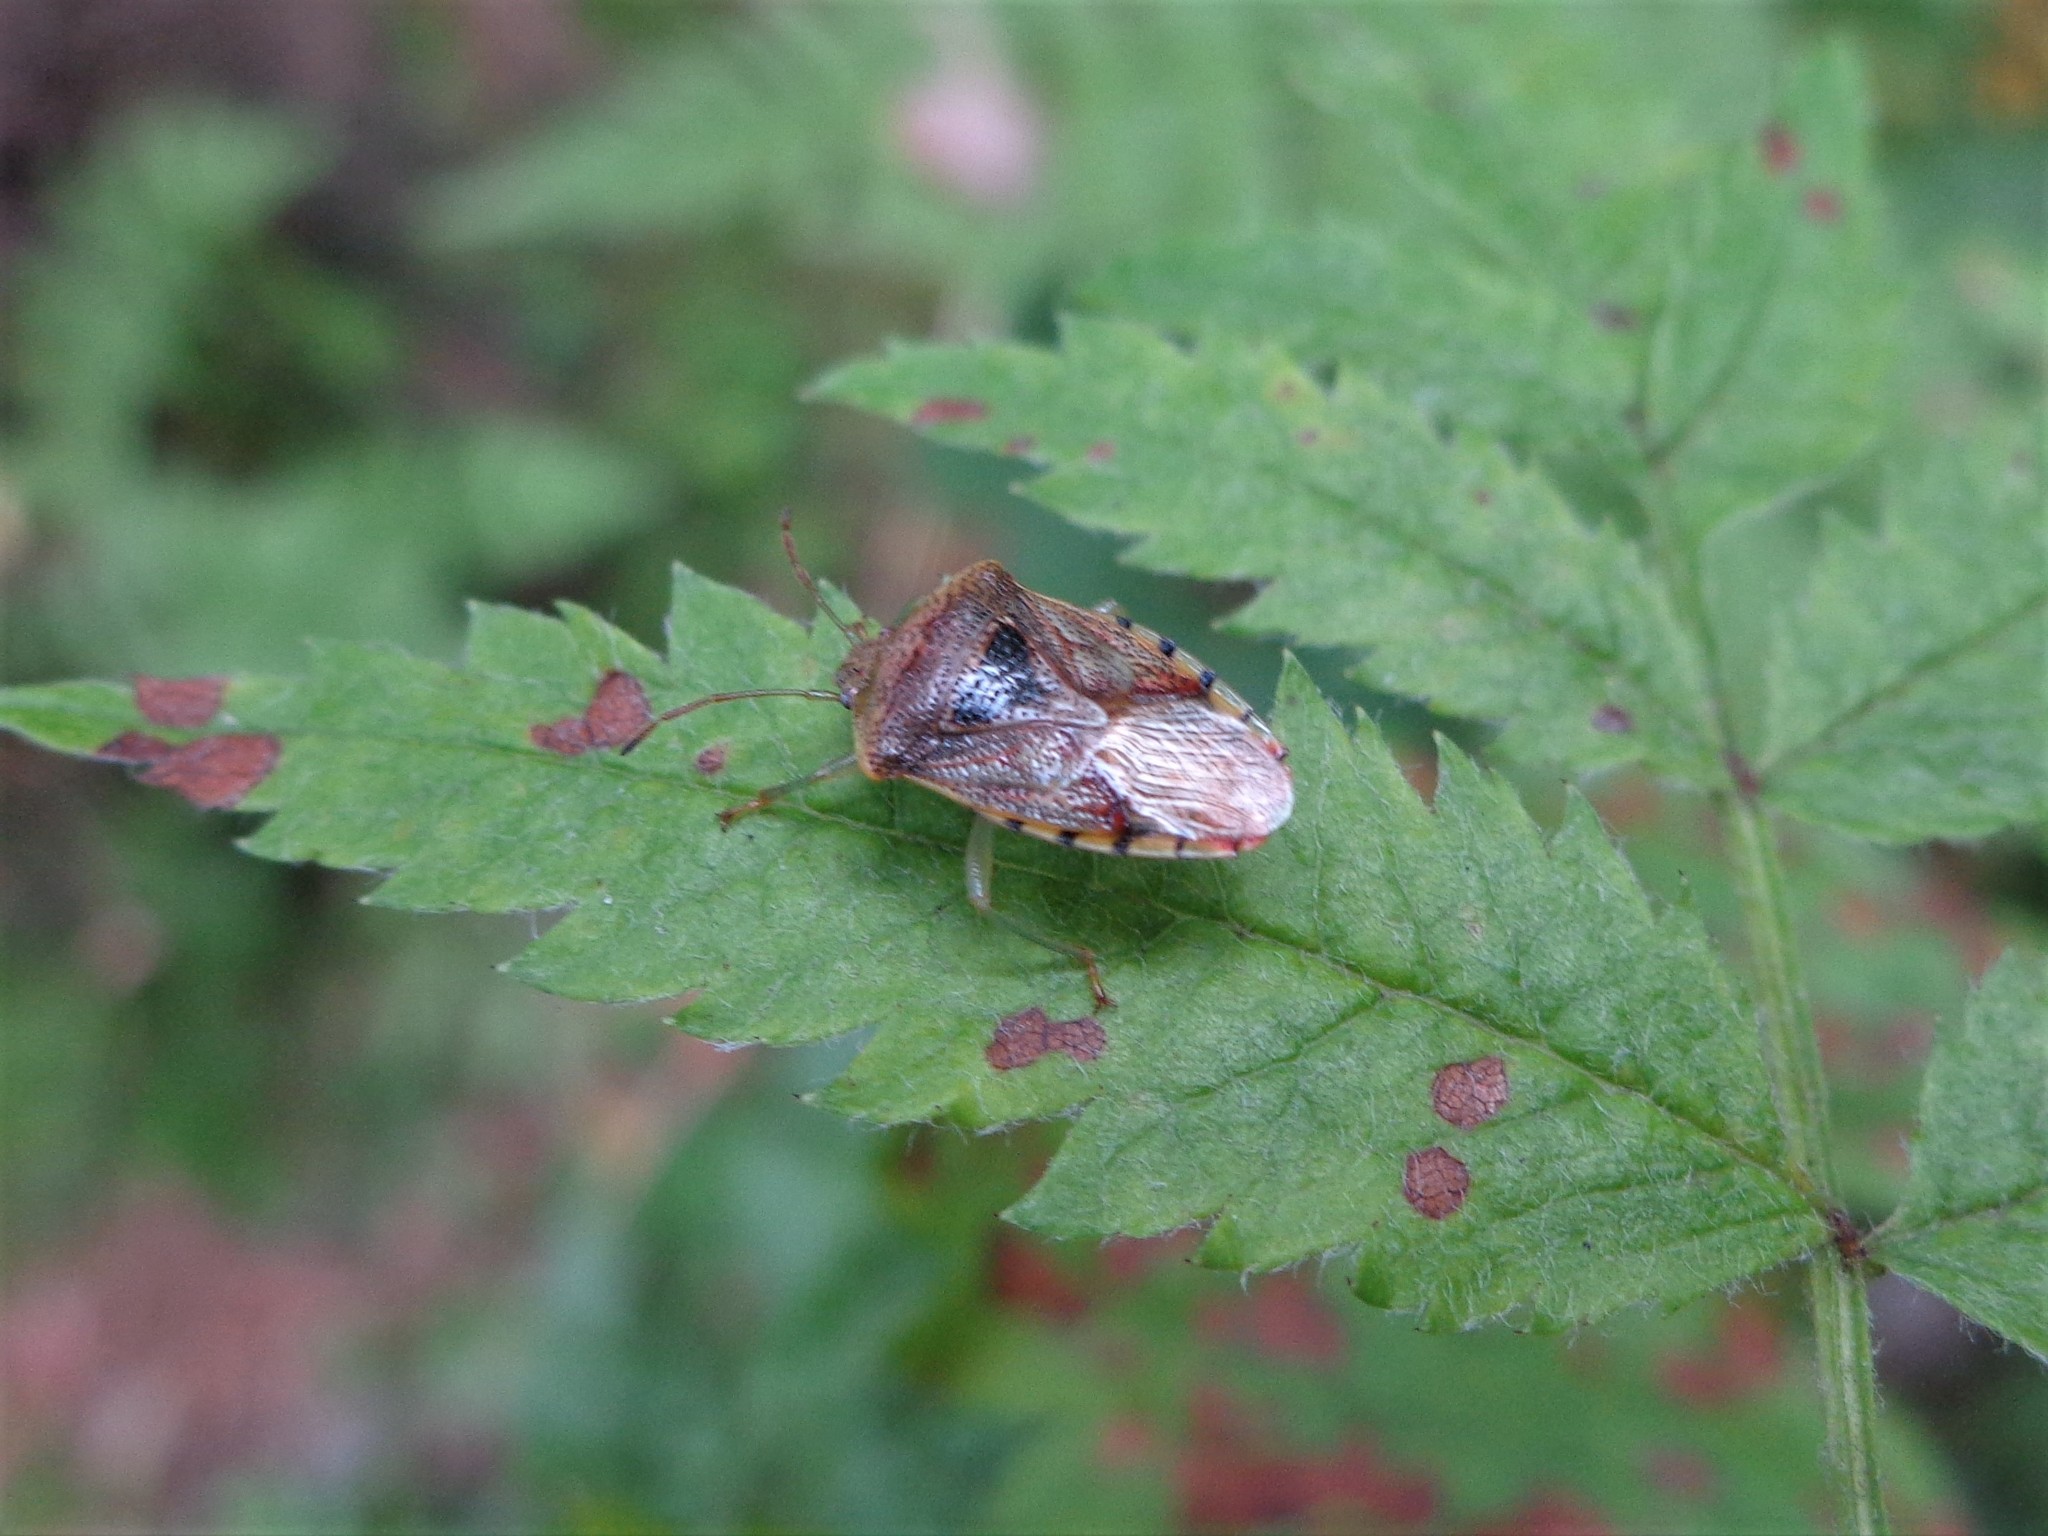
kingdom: Animalia
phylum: Arthropoda
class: Insecta
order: Hemiptera
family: Acanthosomatidae
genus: Elasmucha
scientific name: Elasmucha grisea
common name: Parent bug
